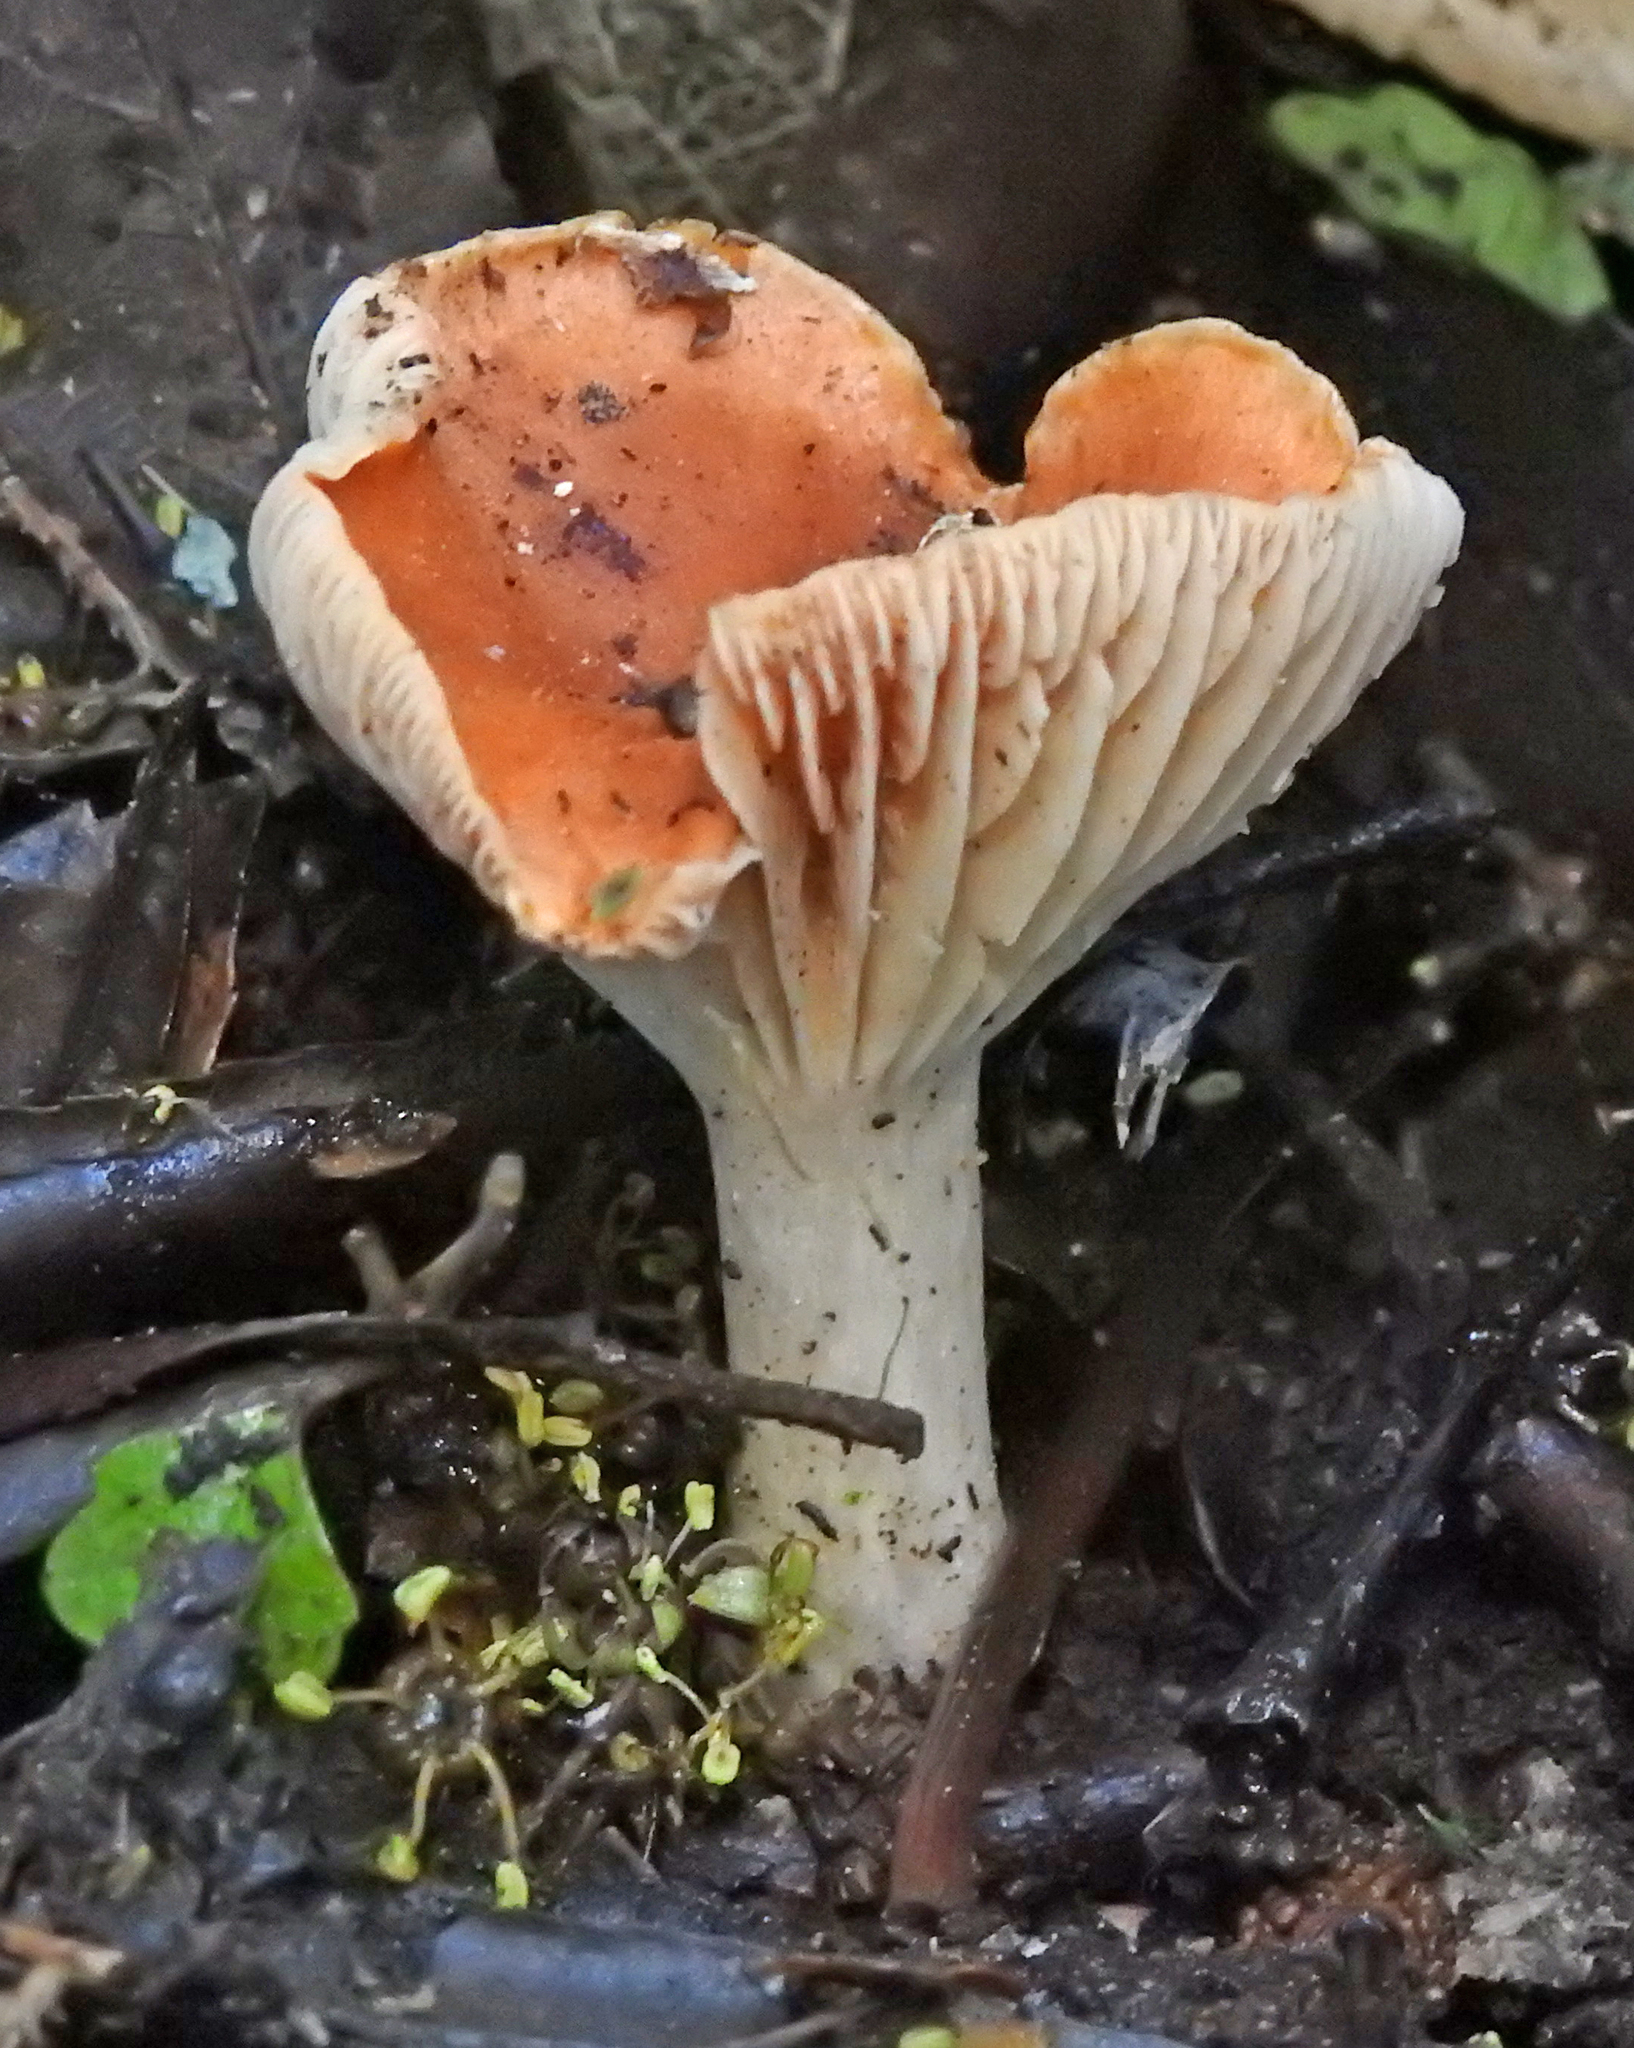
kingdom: Fungi
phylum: Basidiomycota
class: Agaricomycetes
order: Agaricales
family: Hygrophoraceae
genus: Cuphophyllus
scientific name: Cuphophyllus
